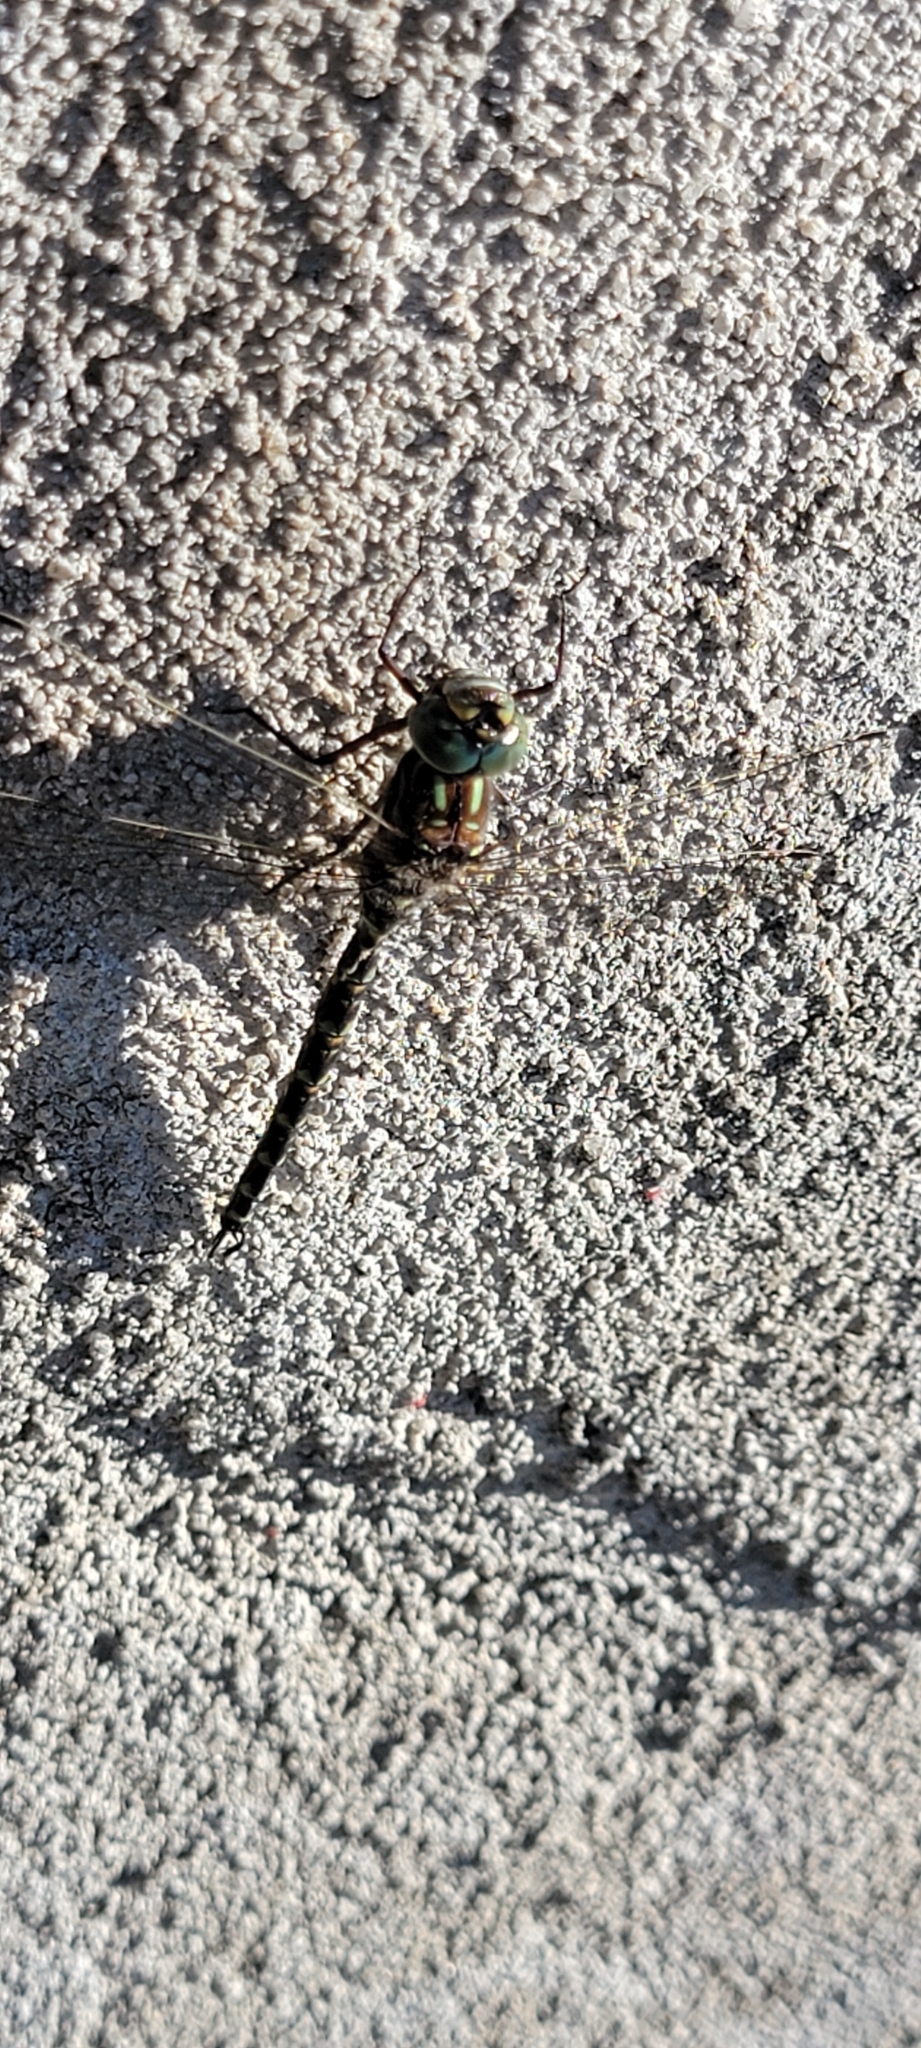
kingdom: Animalia
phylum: Arthropoda
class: Insecta
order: Odonata
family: Aeshnidae
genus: Gomphaeschna
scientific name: Gomphaeschna furcillata
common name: Harlequin darner
